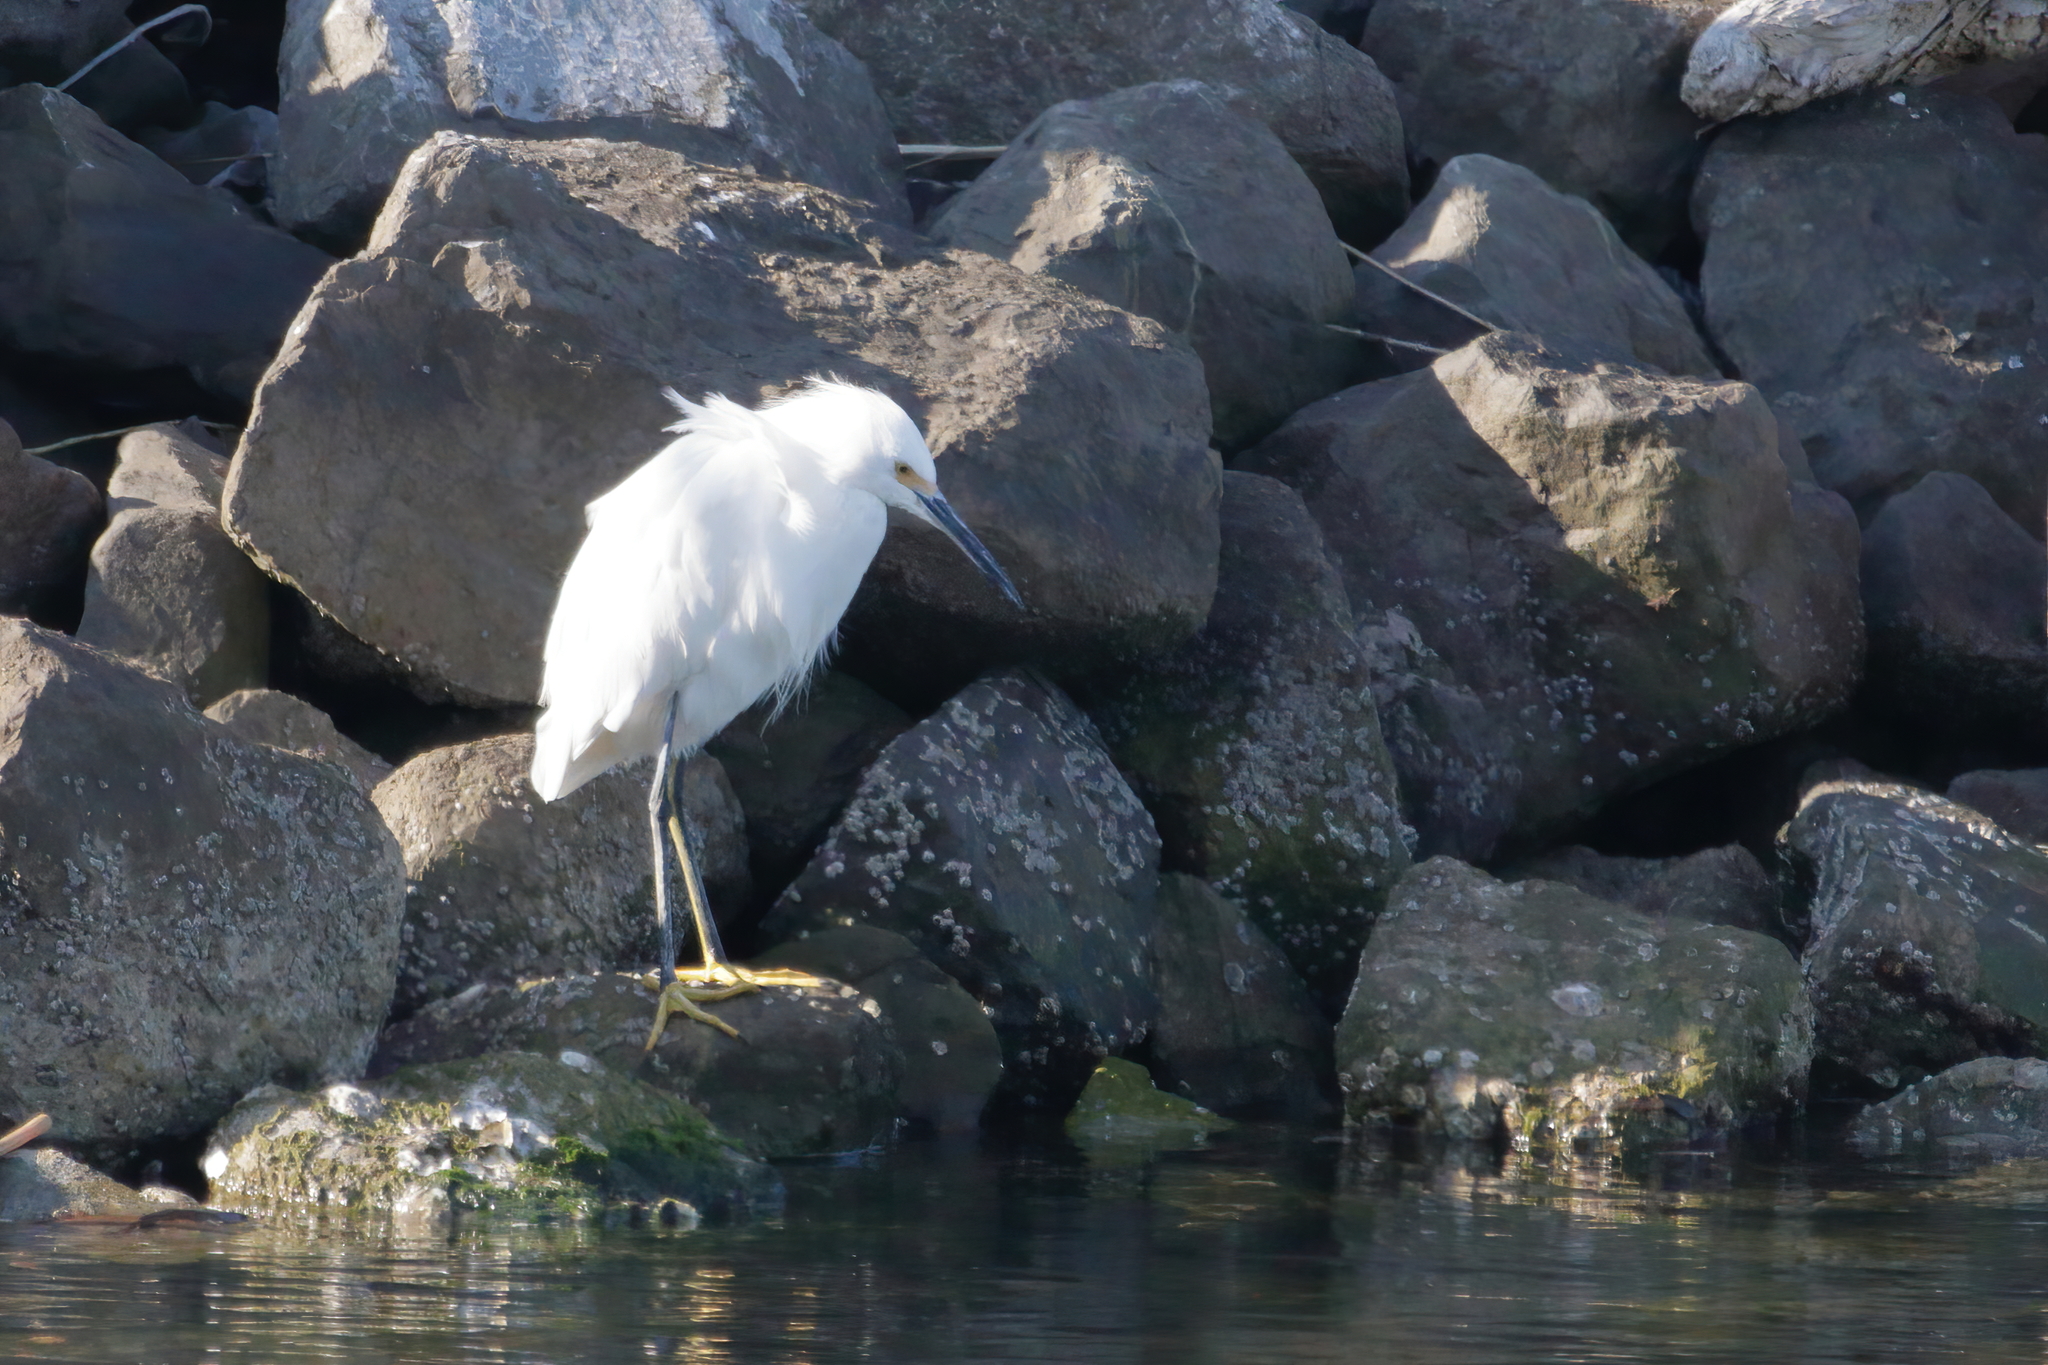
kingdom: Animalia
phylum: Chordata
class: Aves
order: Pelecaniformes
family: Ardeidae
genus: Egretta
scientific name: Egretta thula
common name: Snowy egret
